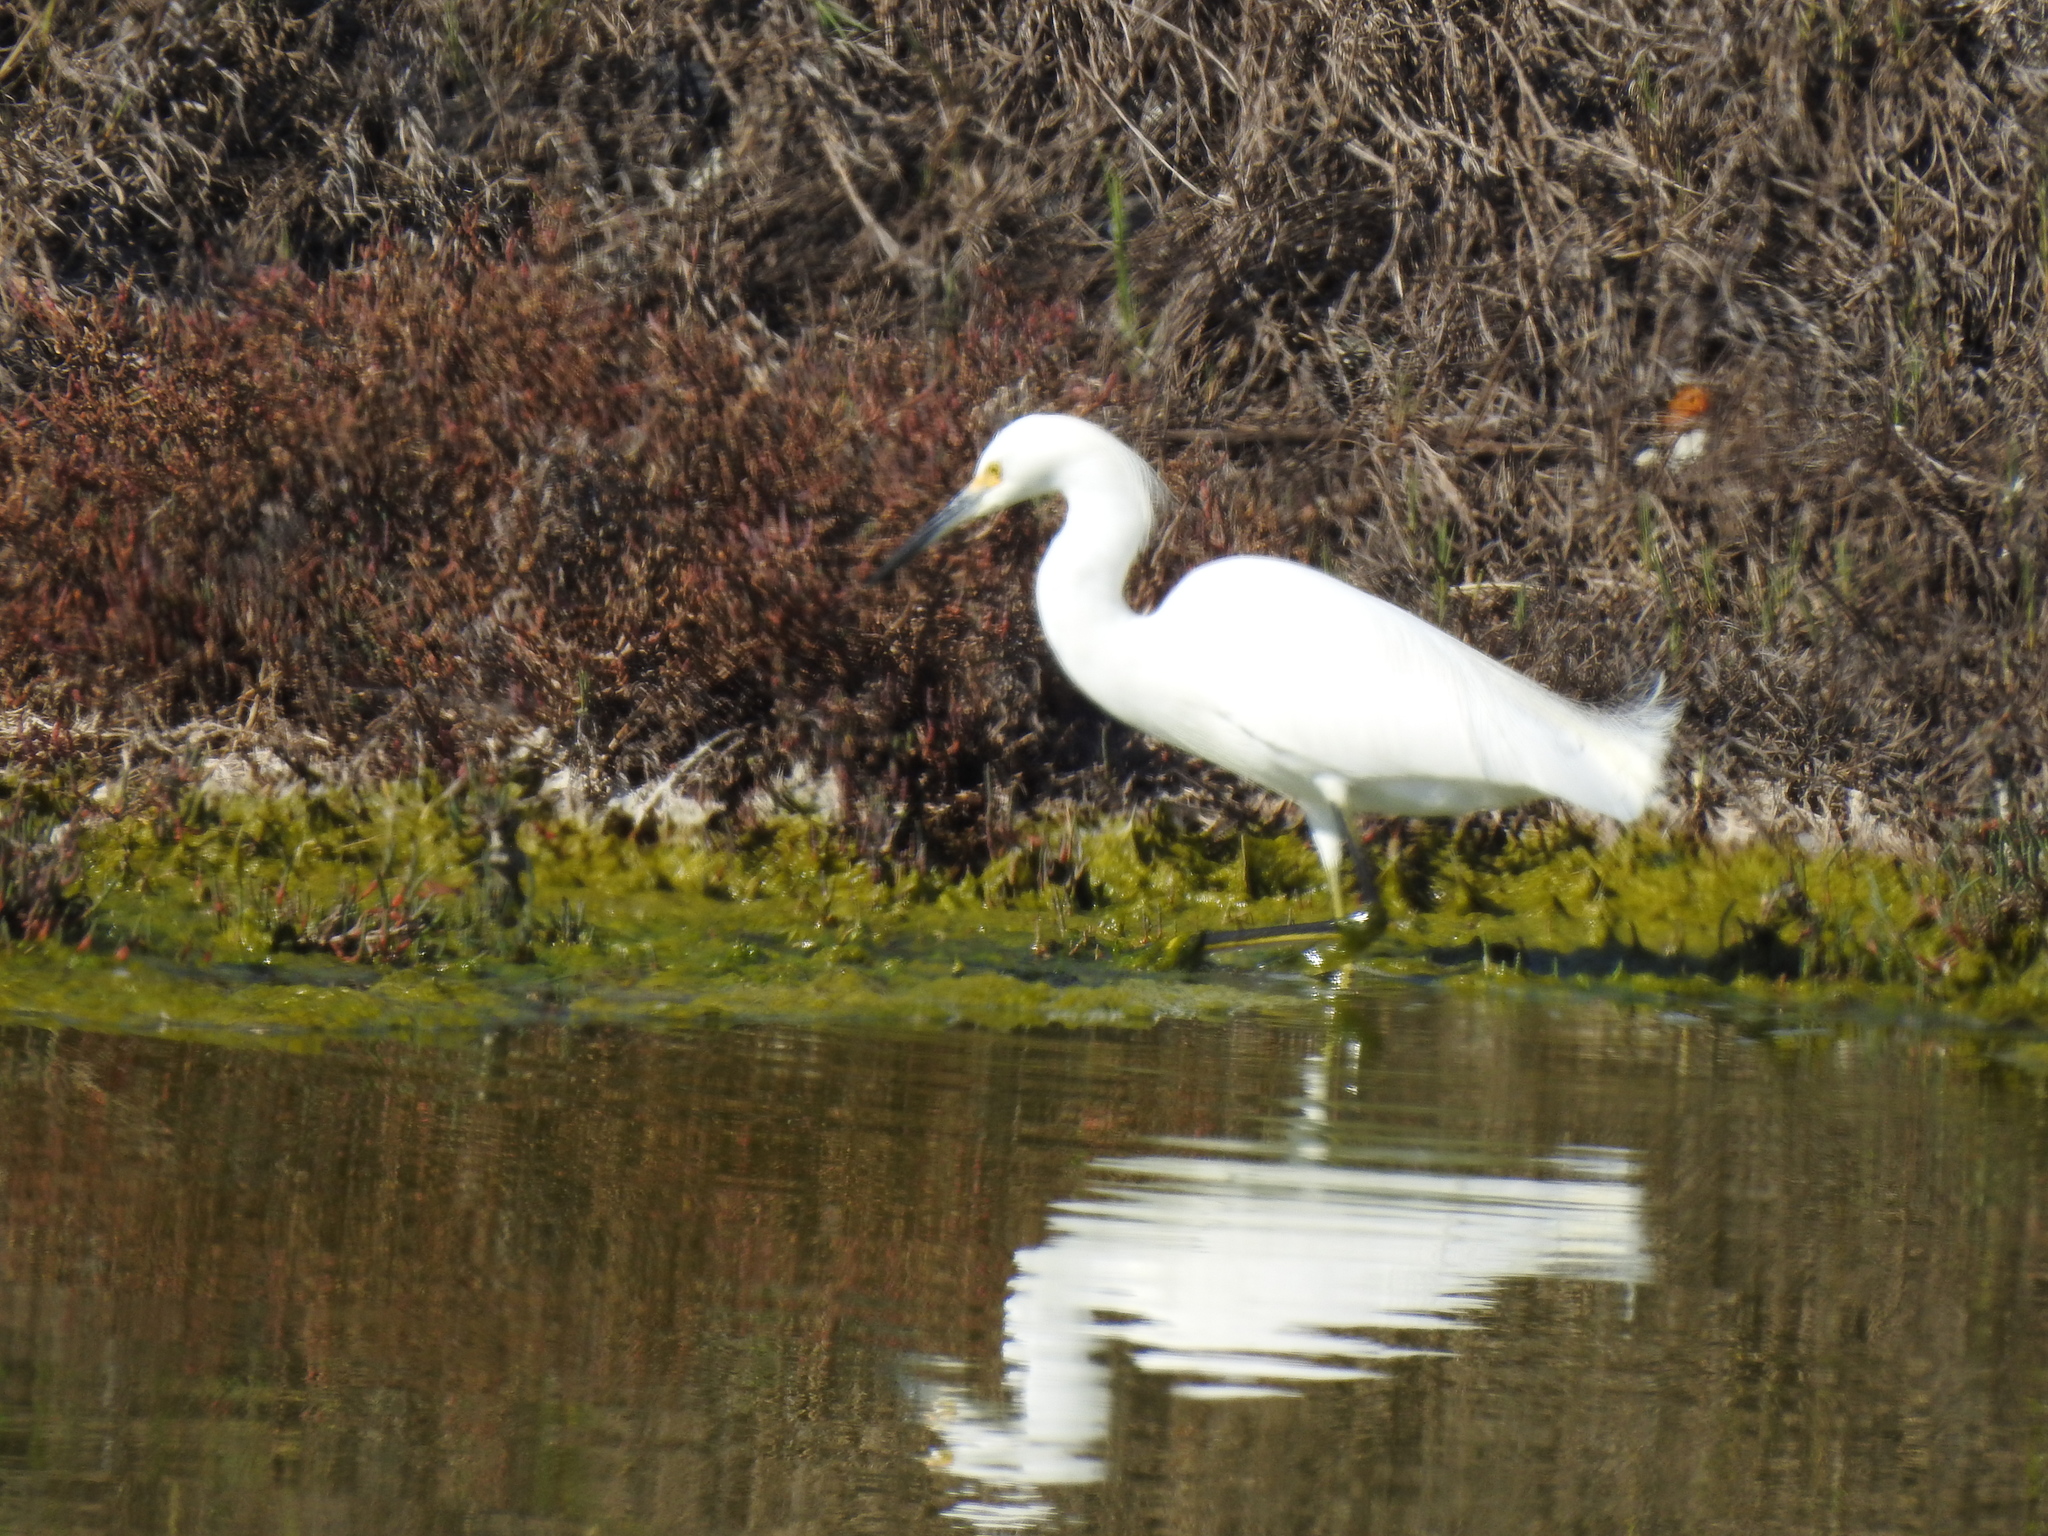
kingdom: Animalia
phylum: Chordata
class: Aves
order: Pelecaniformes
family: Ardeidae
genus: Egretta
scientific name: Egretta thula
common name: Snowy egret
